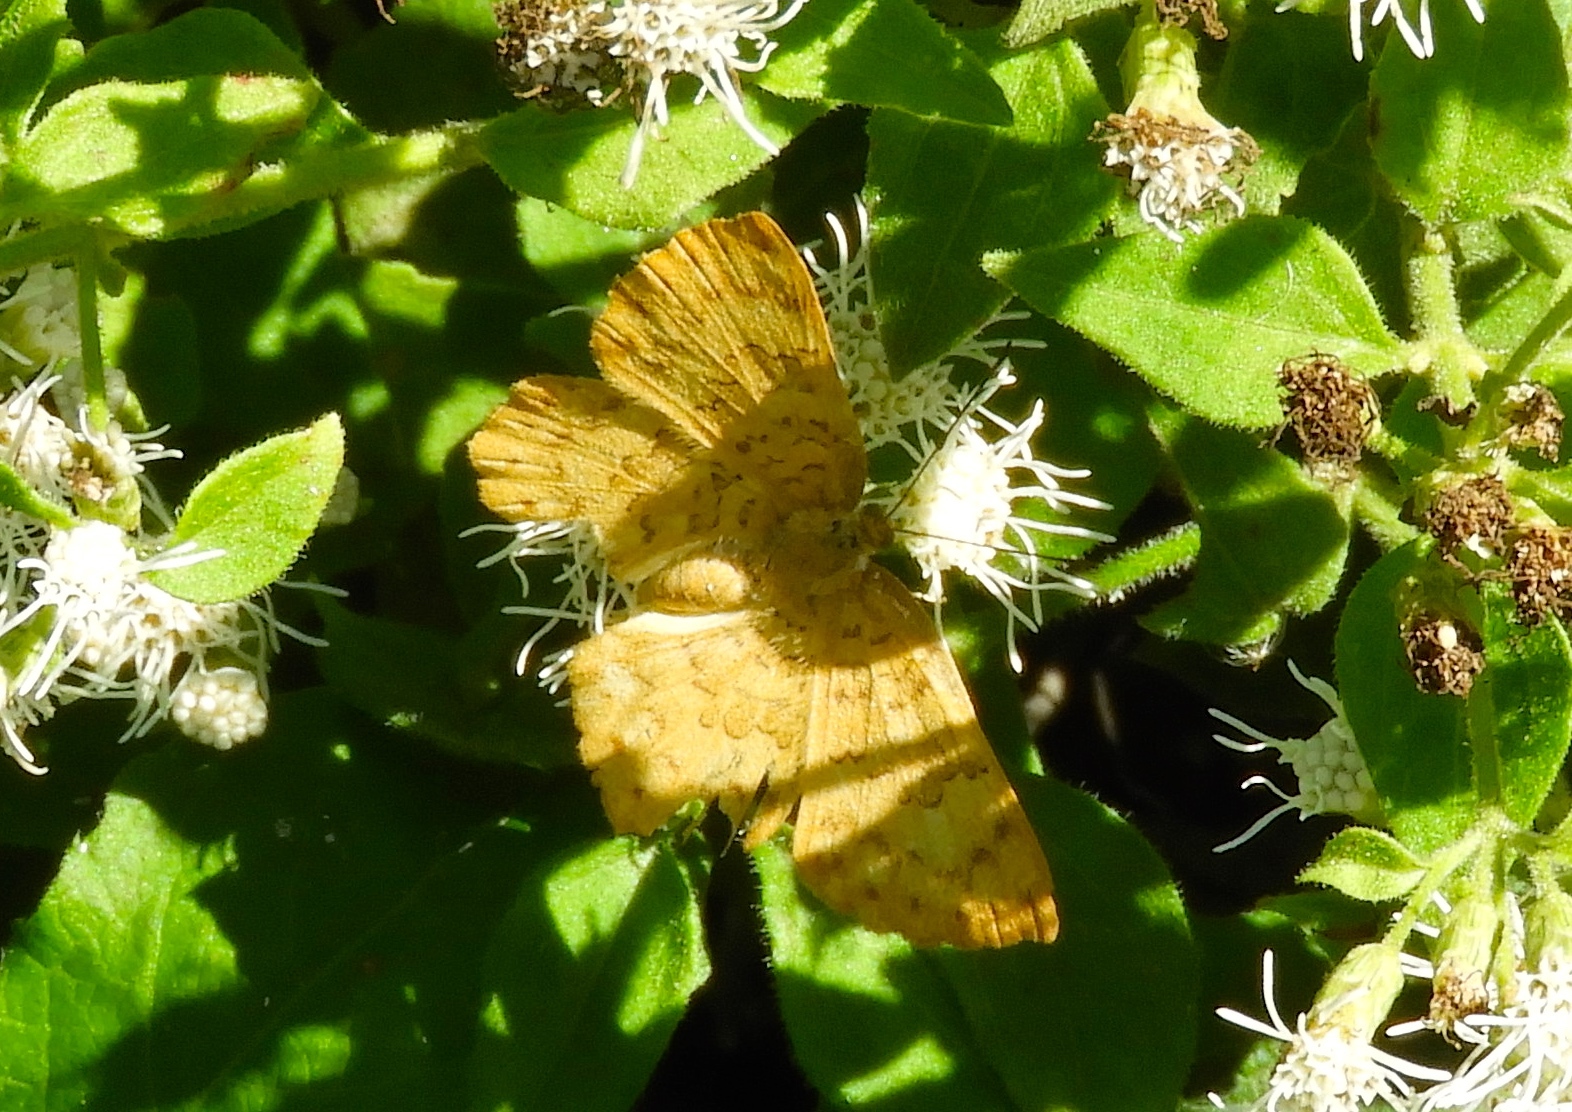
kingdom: Animalia
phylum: Arthropoda
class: Insecta
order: Lepidoptera
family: Lycaenidae
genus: Emesis
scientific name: Emesis vulpina
